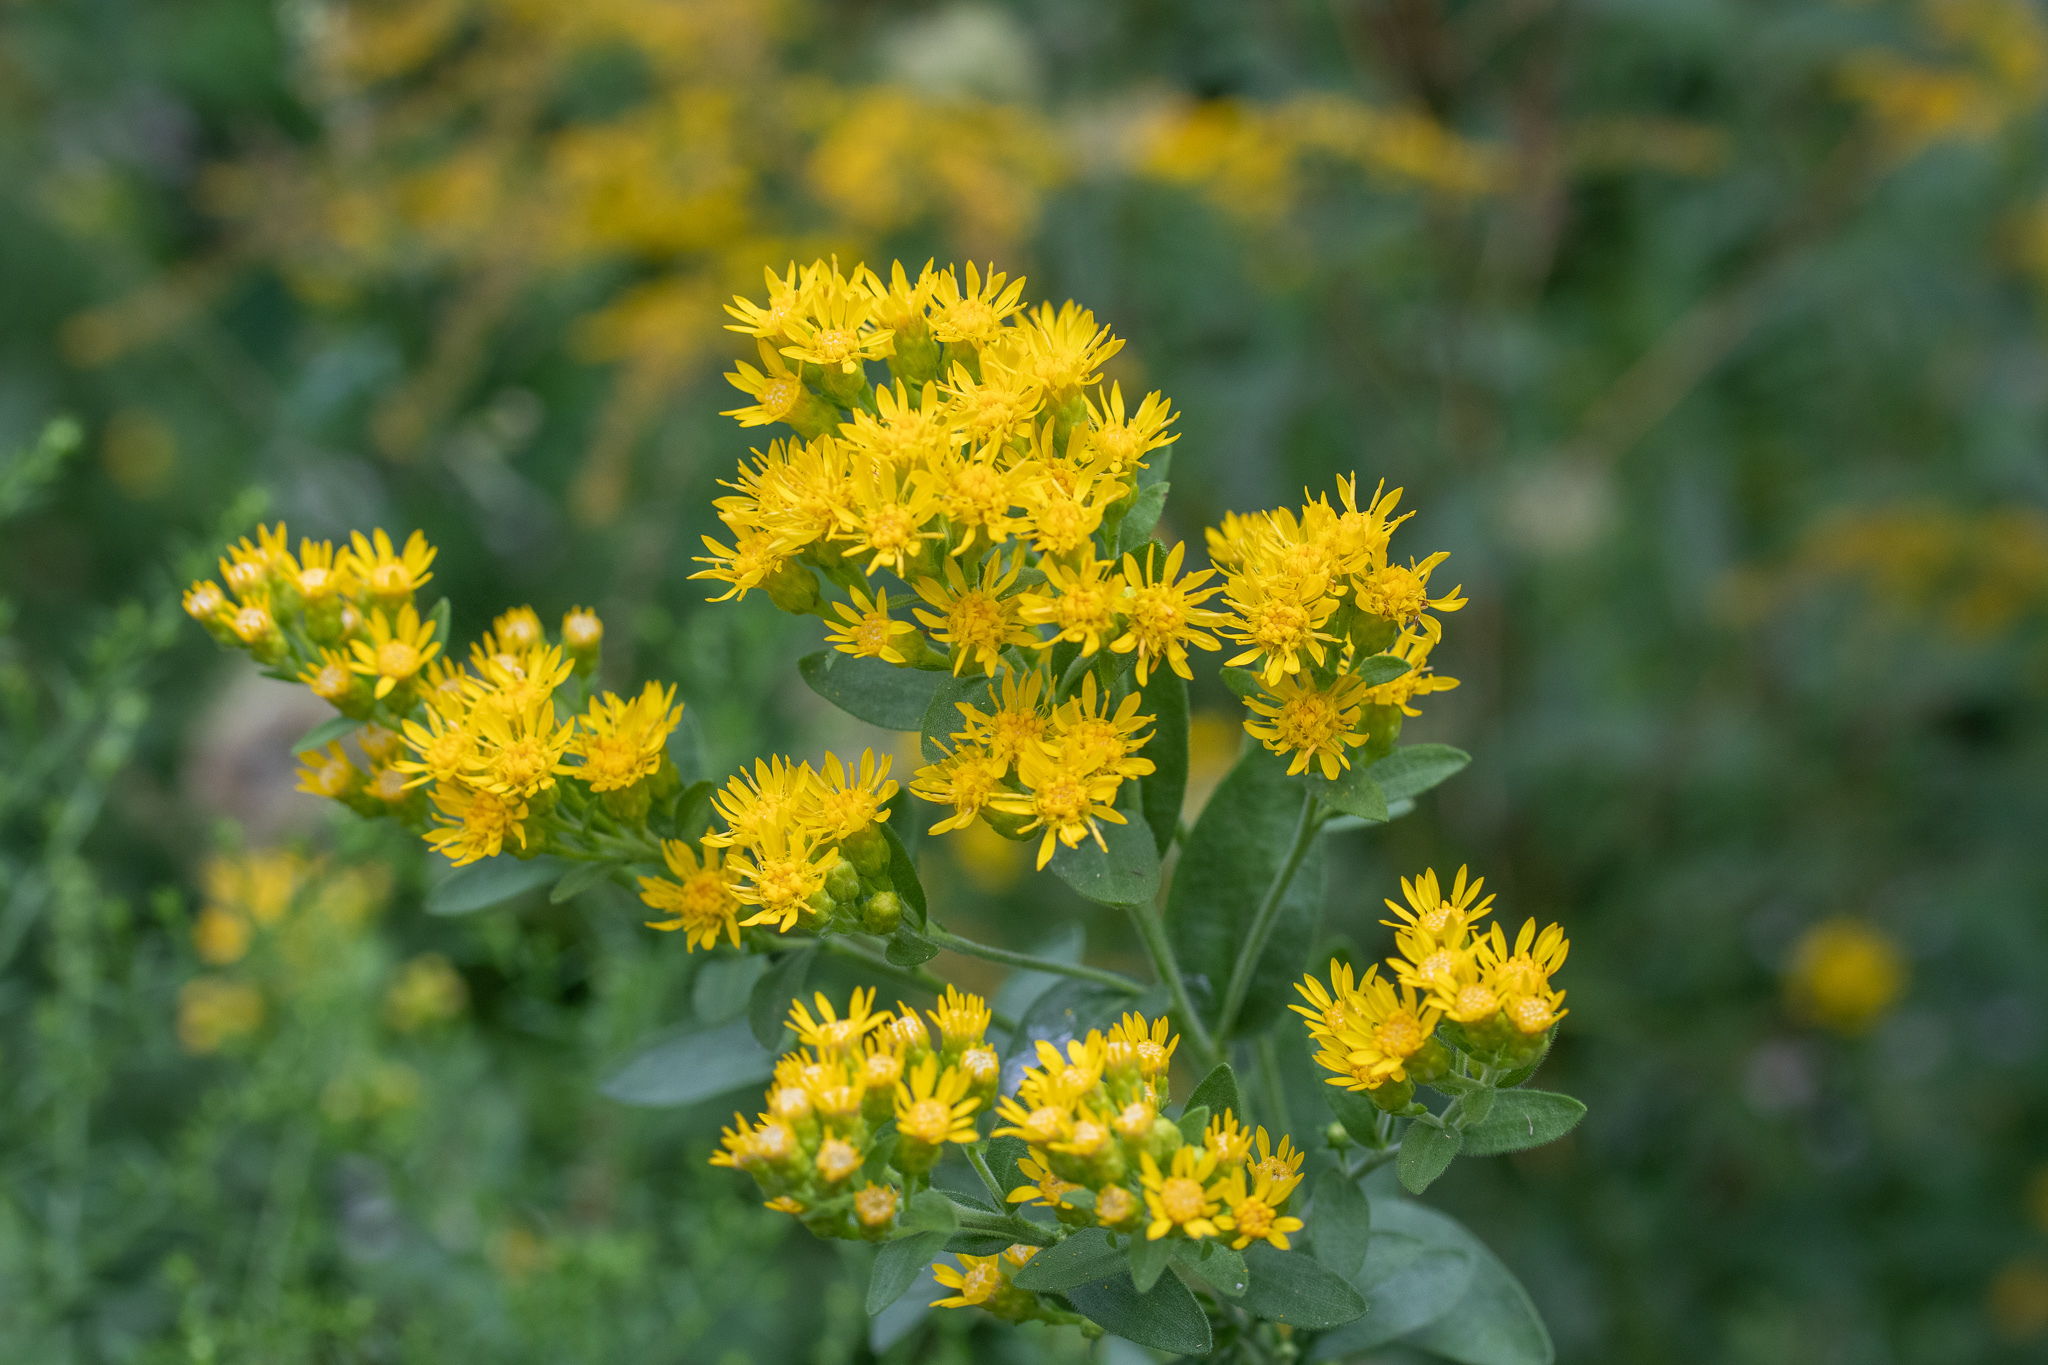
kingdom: Plantae
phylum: Tracheophyta
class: Magnoliopsida
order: Asterales
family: Asteraceae
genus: Solidago
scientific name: Solidago rigida
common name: Rigid goldenrod
